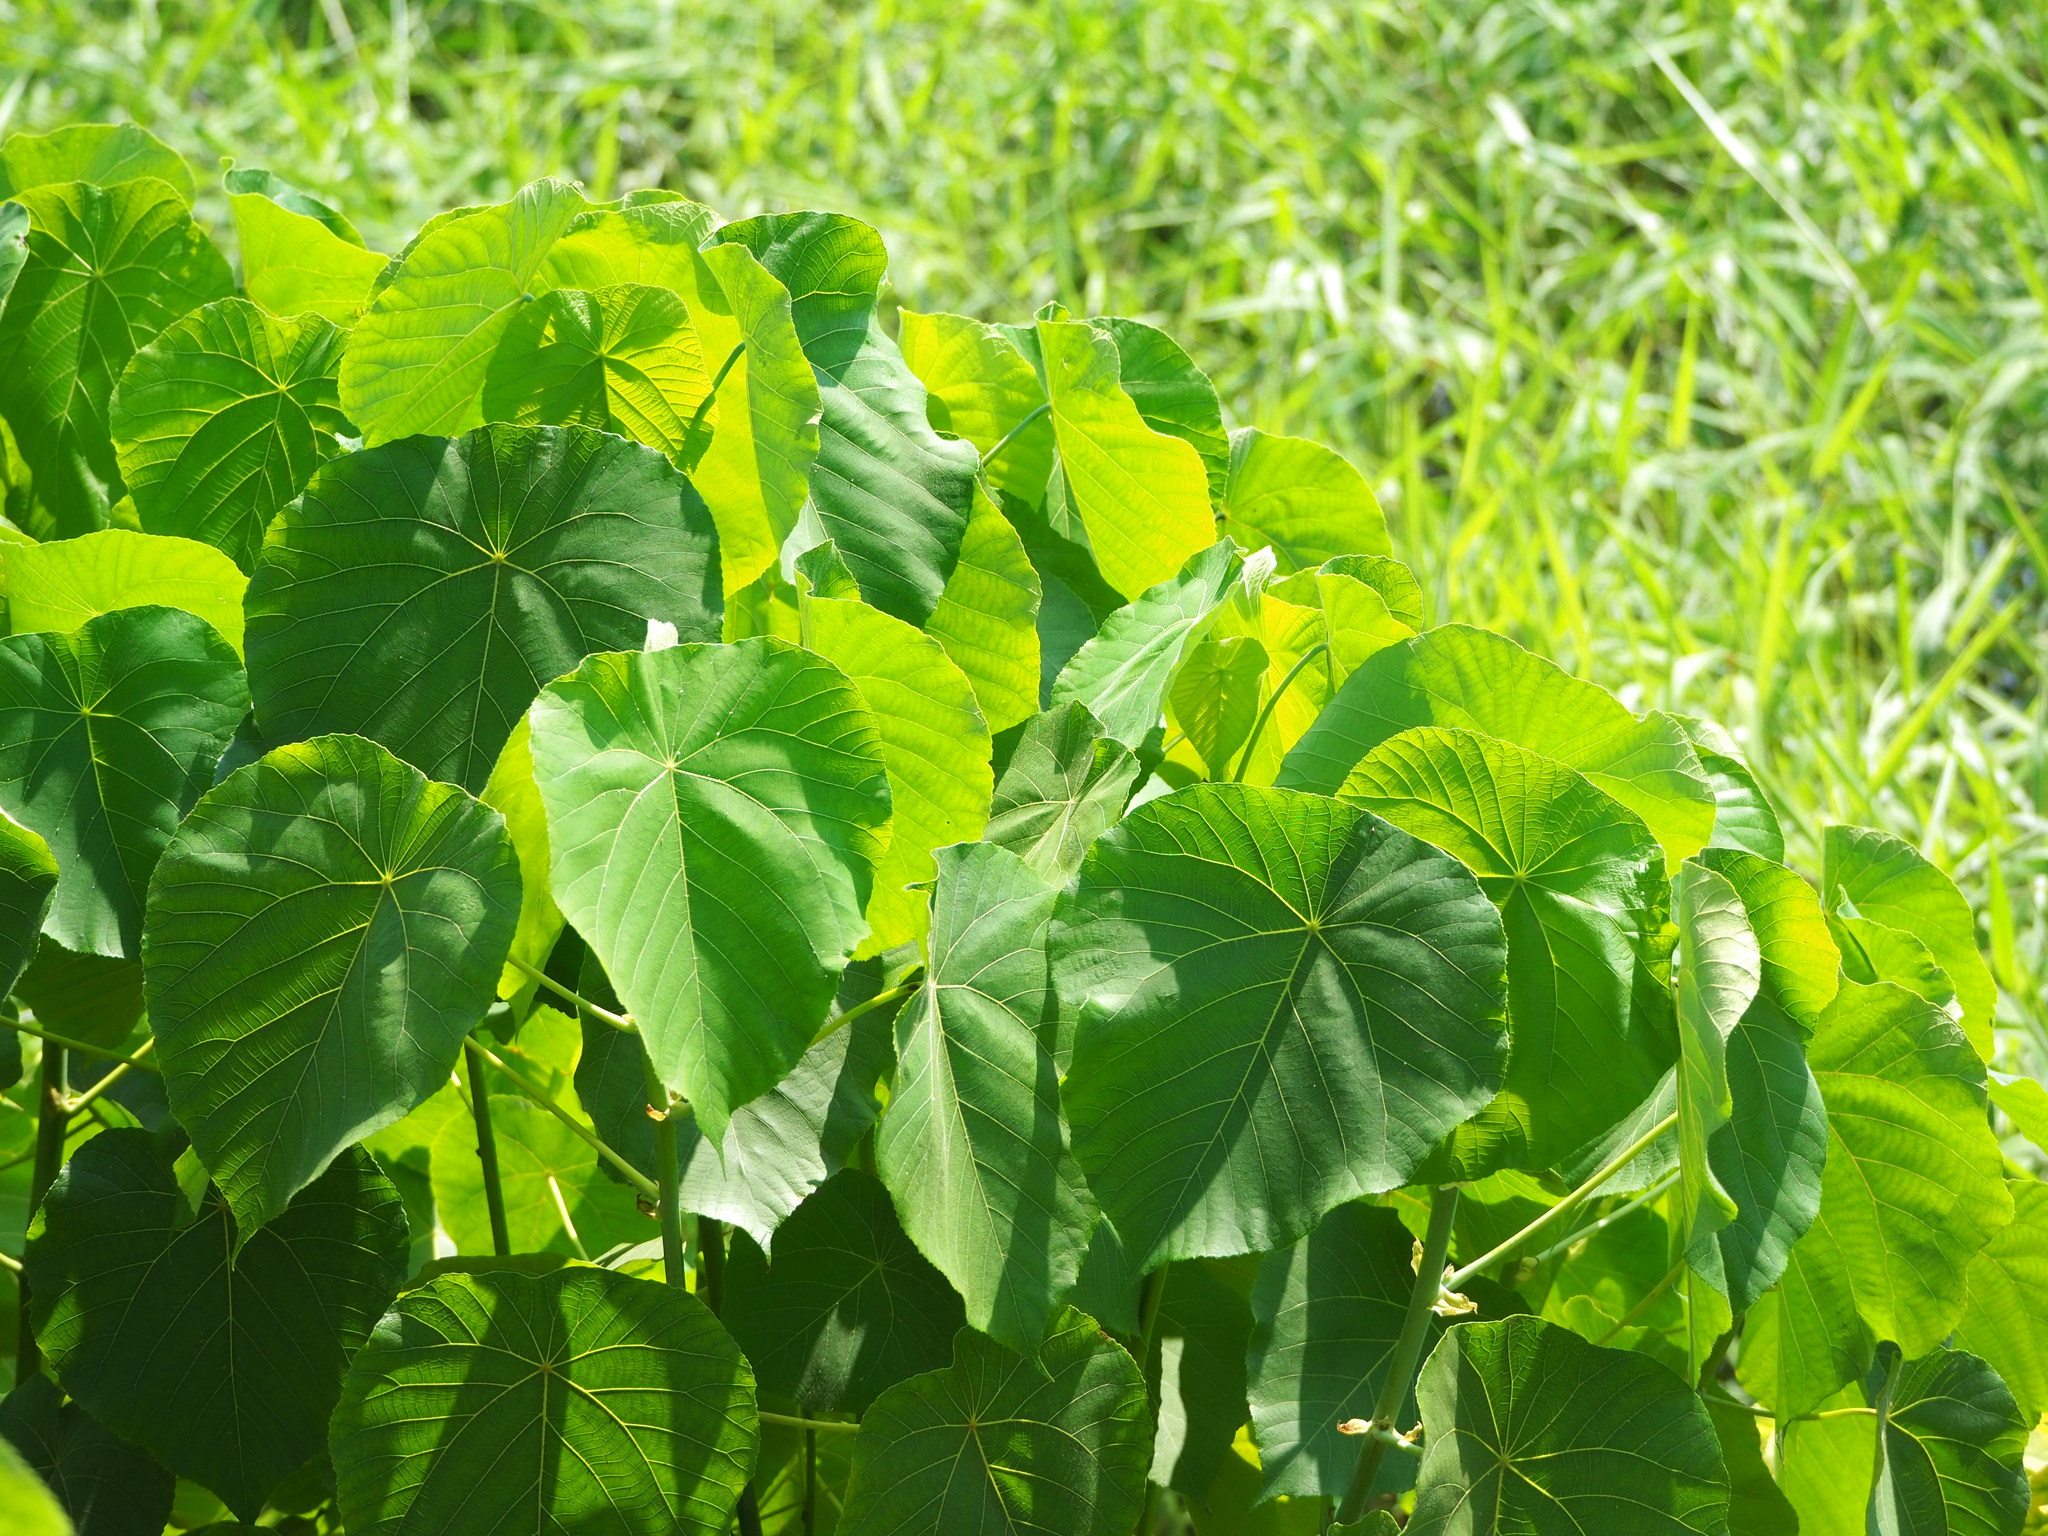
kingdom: Plantae
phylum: Tracheophyta
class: Magnoliopsida
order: Malpighiales
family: Euphorbiaceae
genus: Macaranga
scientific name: Macaranga tanarius
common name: Parasol leaf tree
